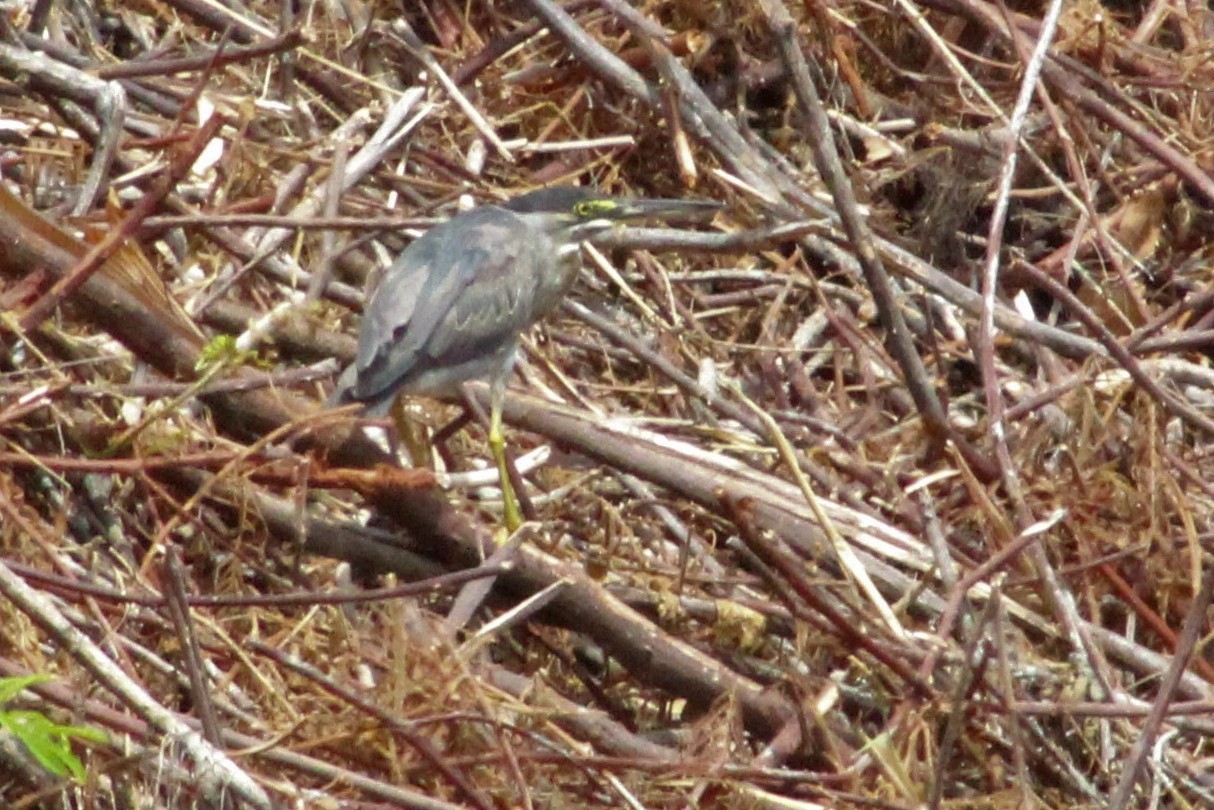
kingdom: Animalia
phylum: Chordata
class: Aves
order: Pelecaniformes
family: Ardeidae
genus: Butorides
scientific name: Butorides striata
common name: Striated heron
